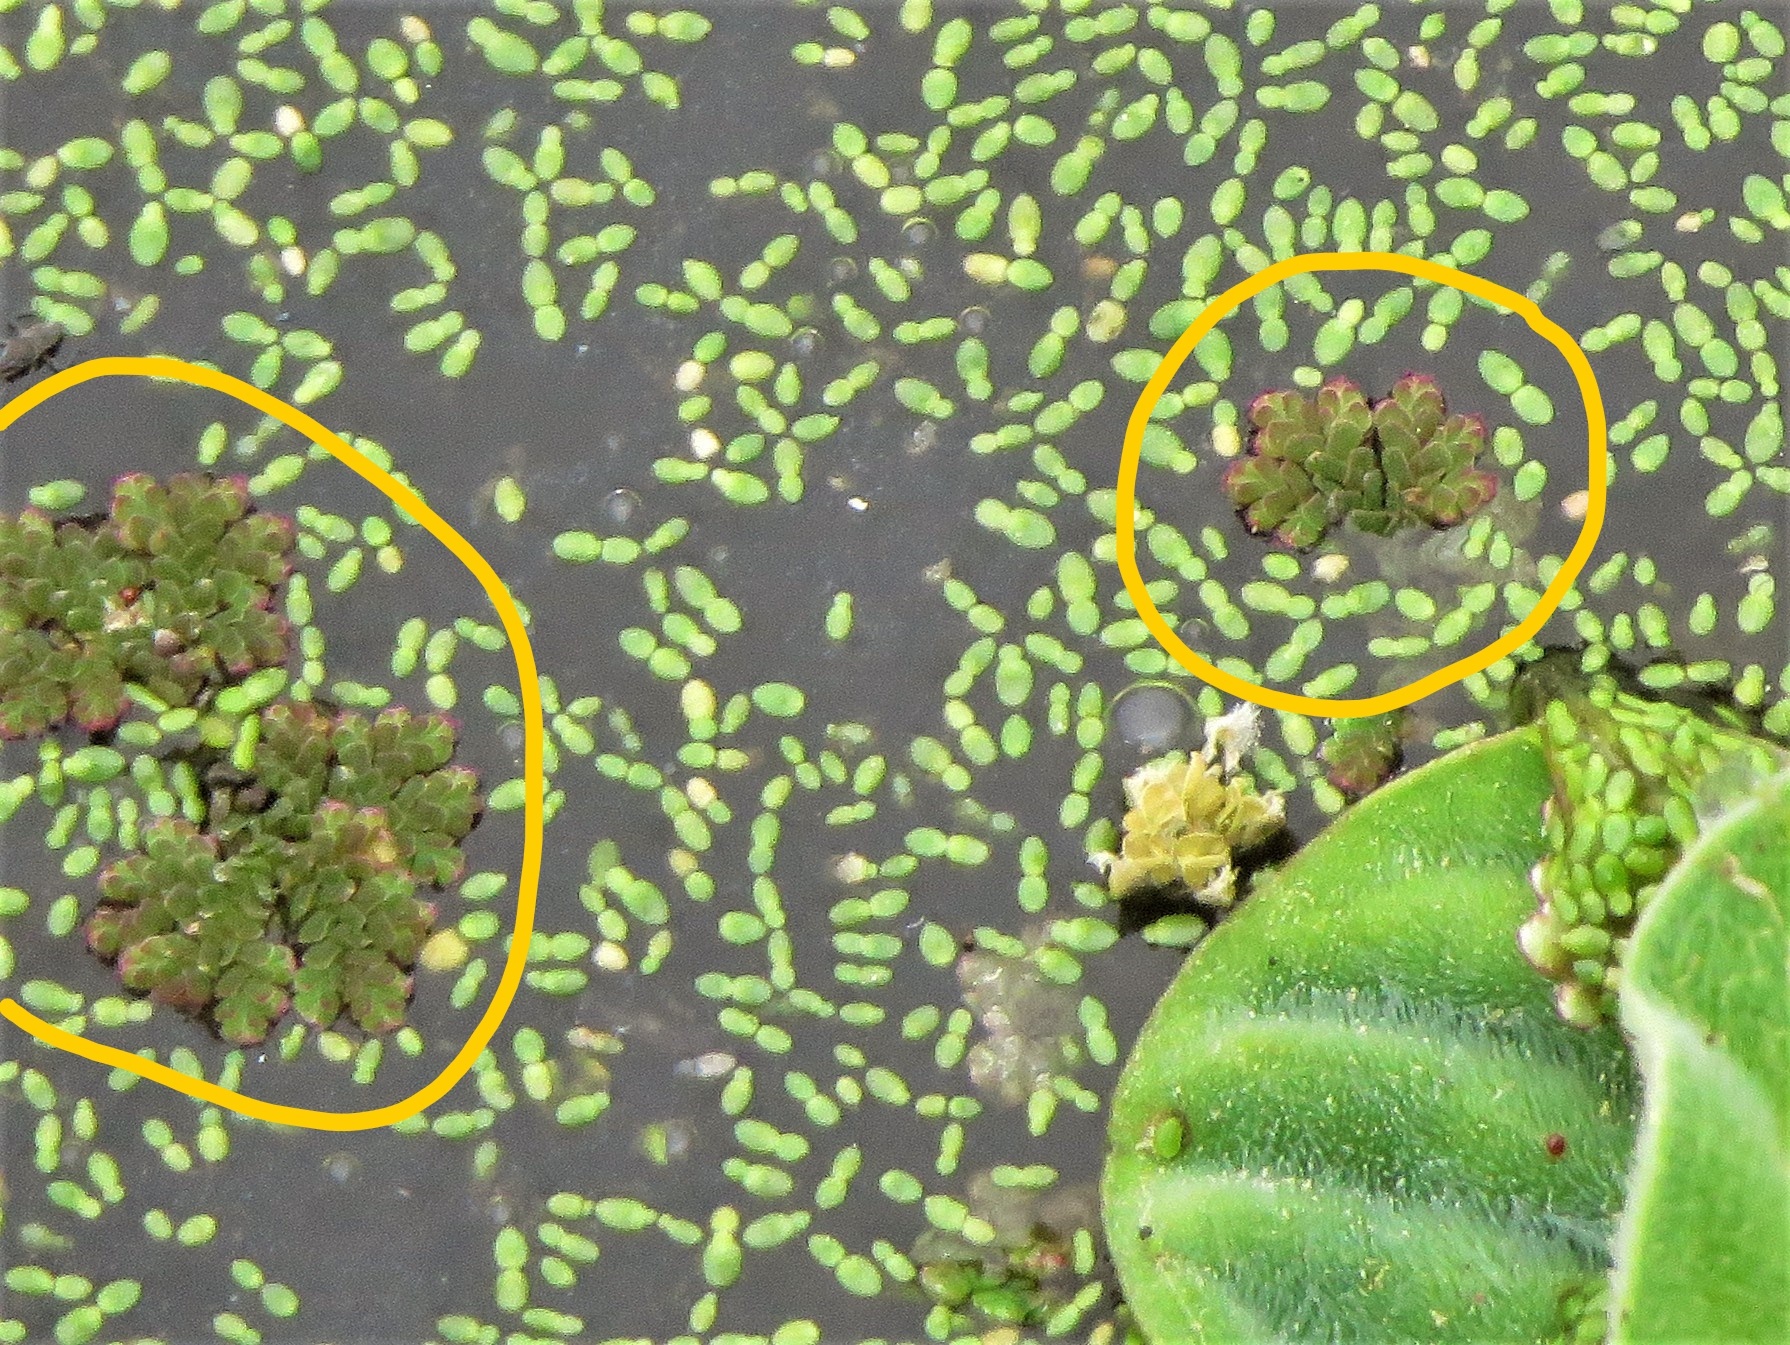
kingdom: Plantae
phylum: Tracheophyta
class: Polypodiopsida
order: Salviniales
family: Salviniaceae
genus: Azolla
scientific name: Azolla caroliniana
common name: Carolina mosquitofern
